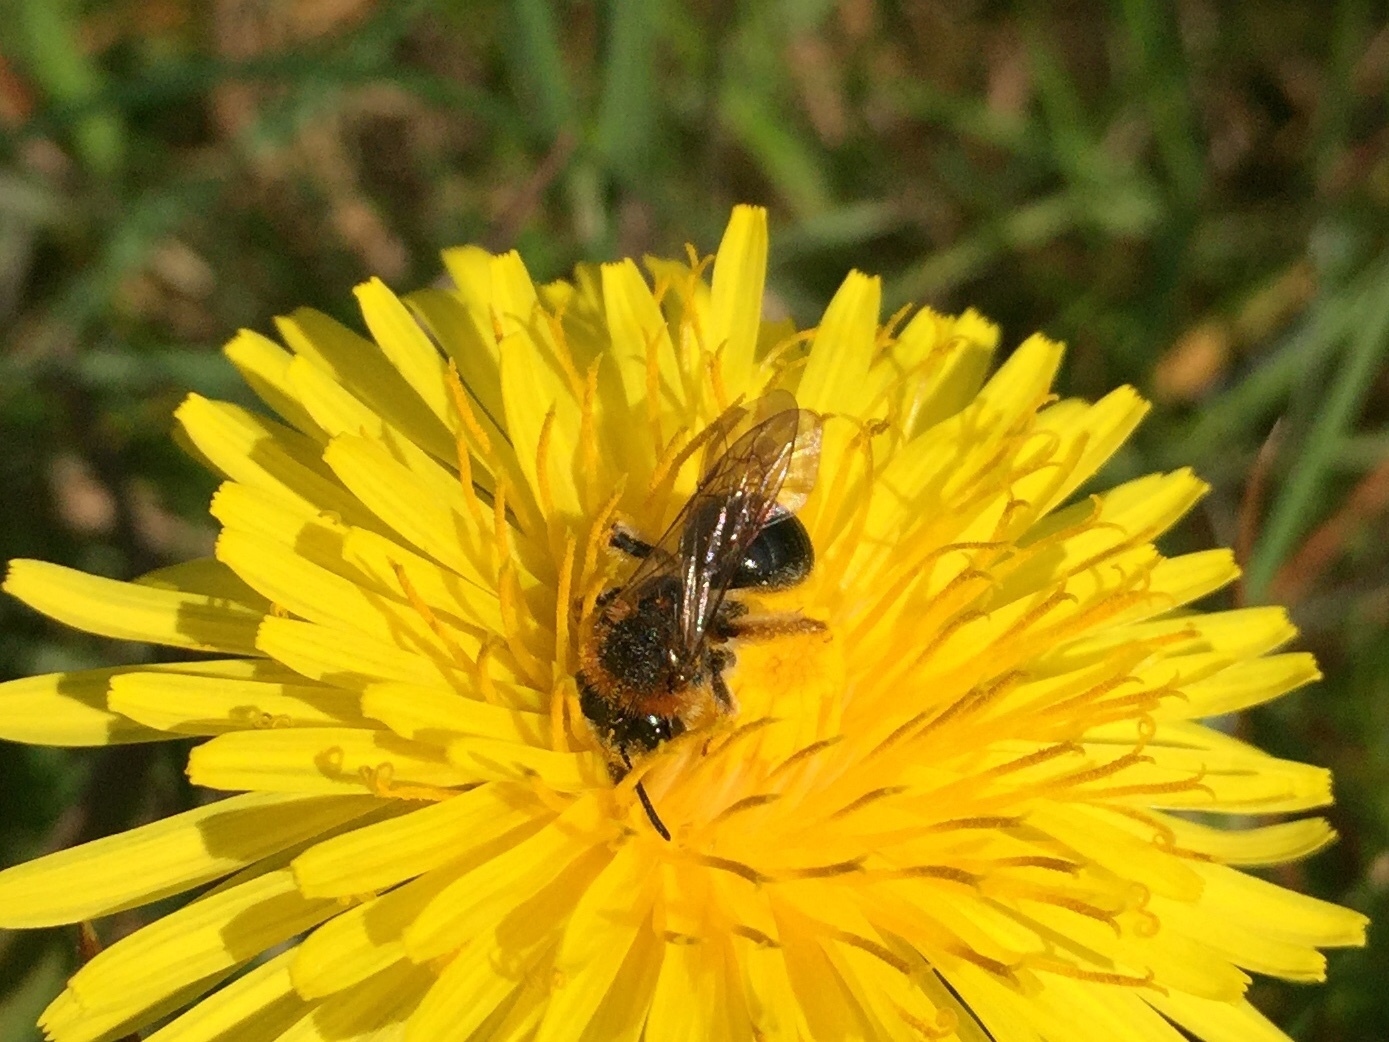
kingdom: Animalia
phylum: Arthropoda
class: Insecta
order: Hymenoptera
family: Andrenidae
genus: Andrena
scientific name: Andrena haemorrhoa
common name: Early mining bee
